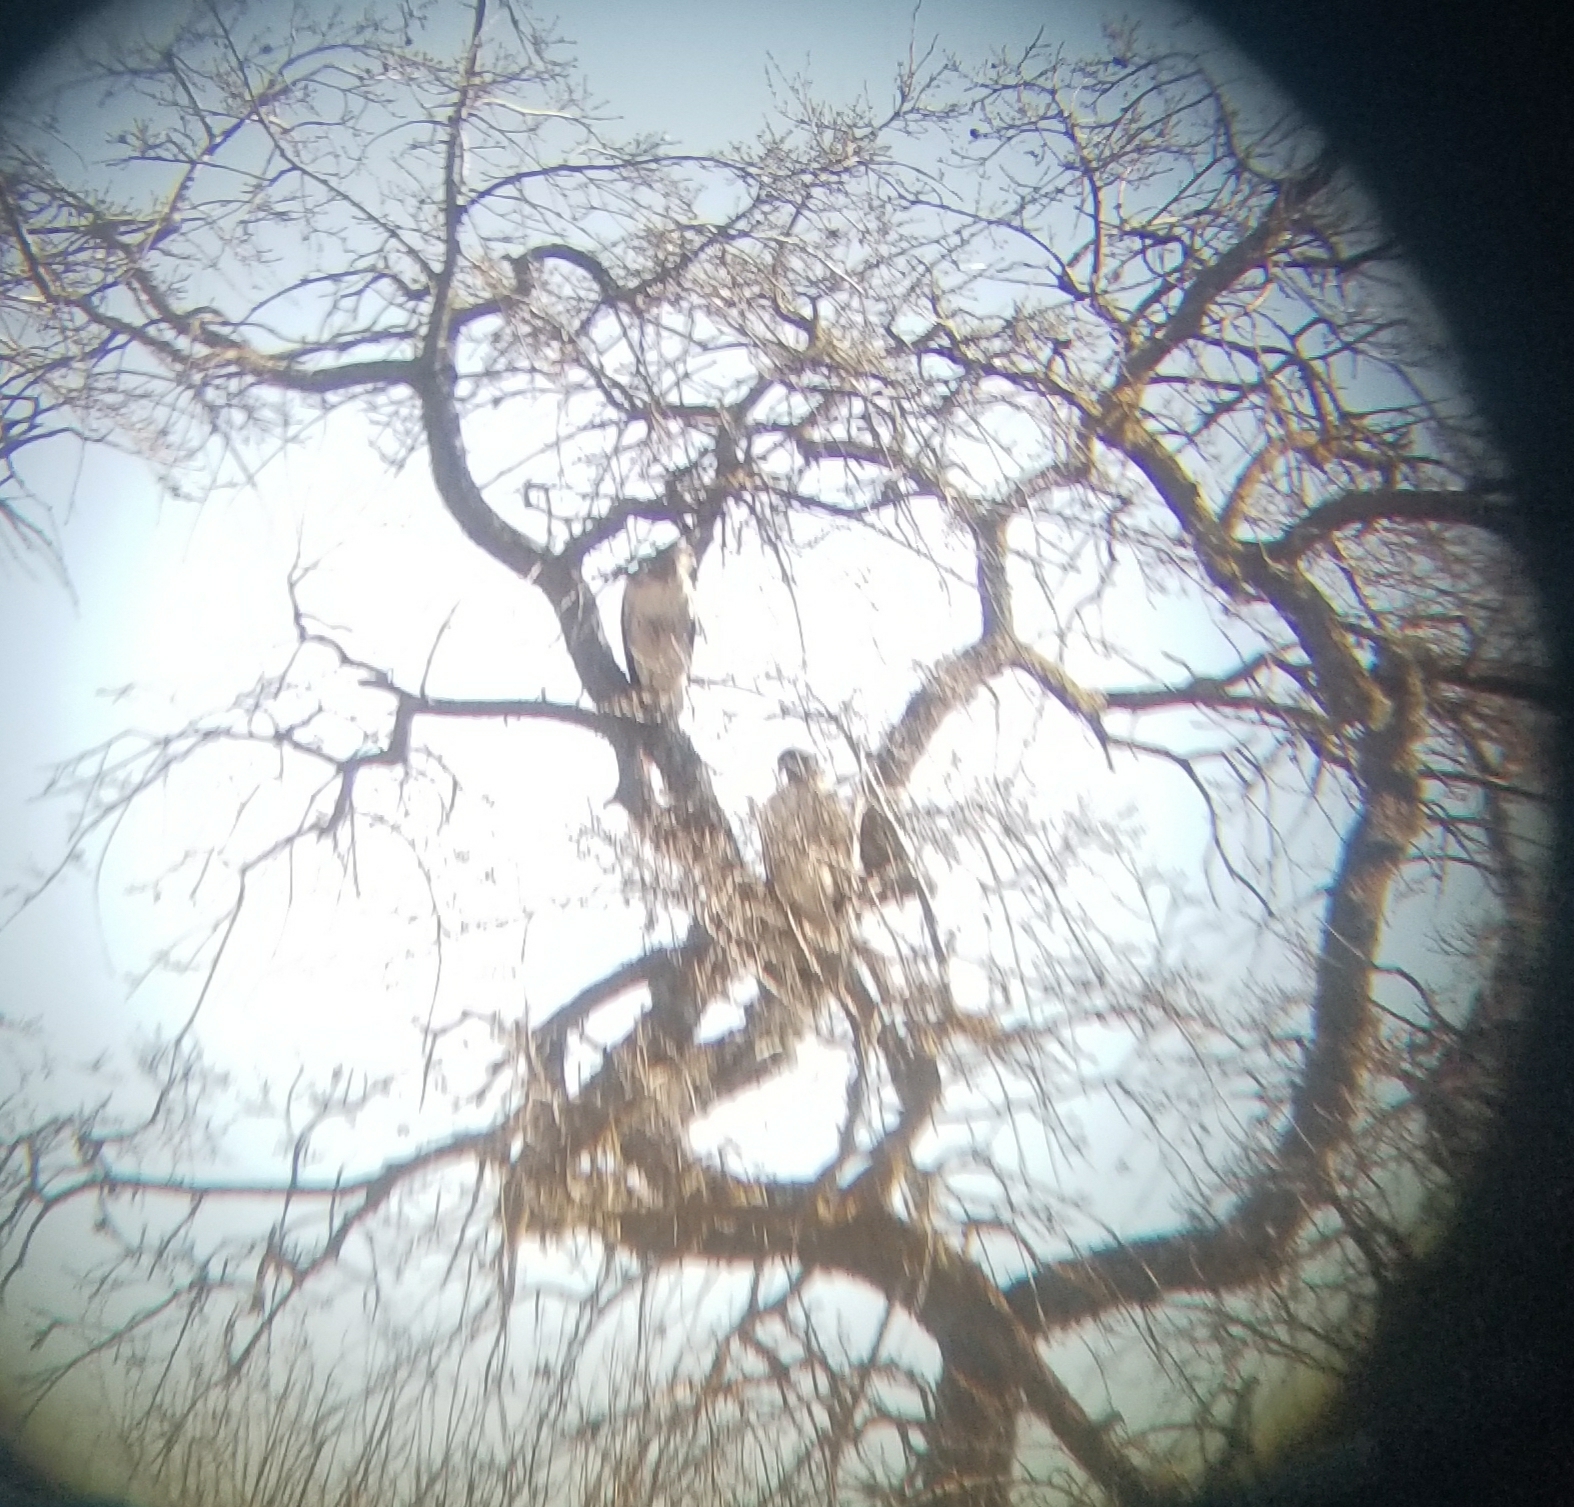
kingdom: Animalia
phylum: Chordata
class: Aves
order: Accipitriformes
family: Accipitridae
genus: Buteo
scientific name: Buteo jamaicensis
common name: Red-tailed hawk
